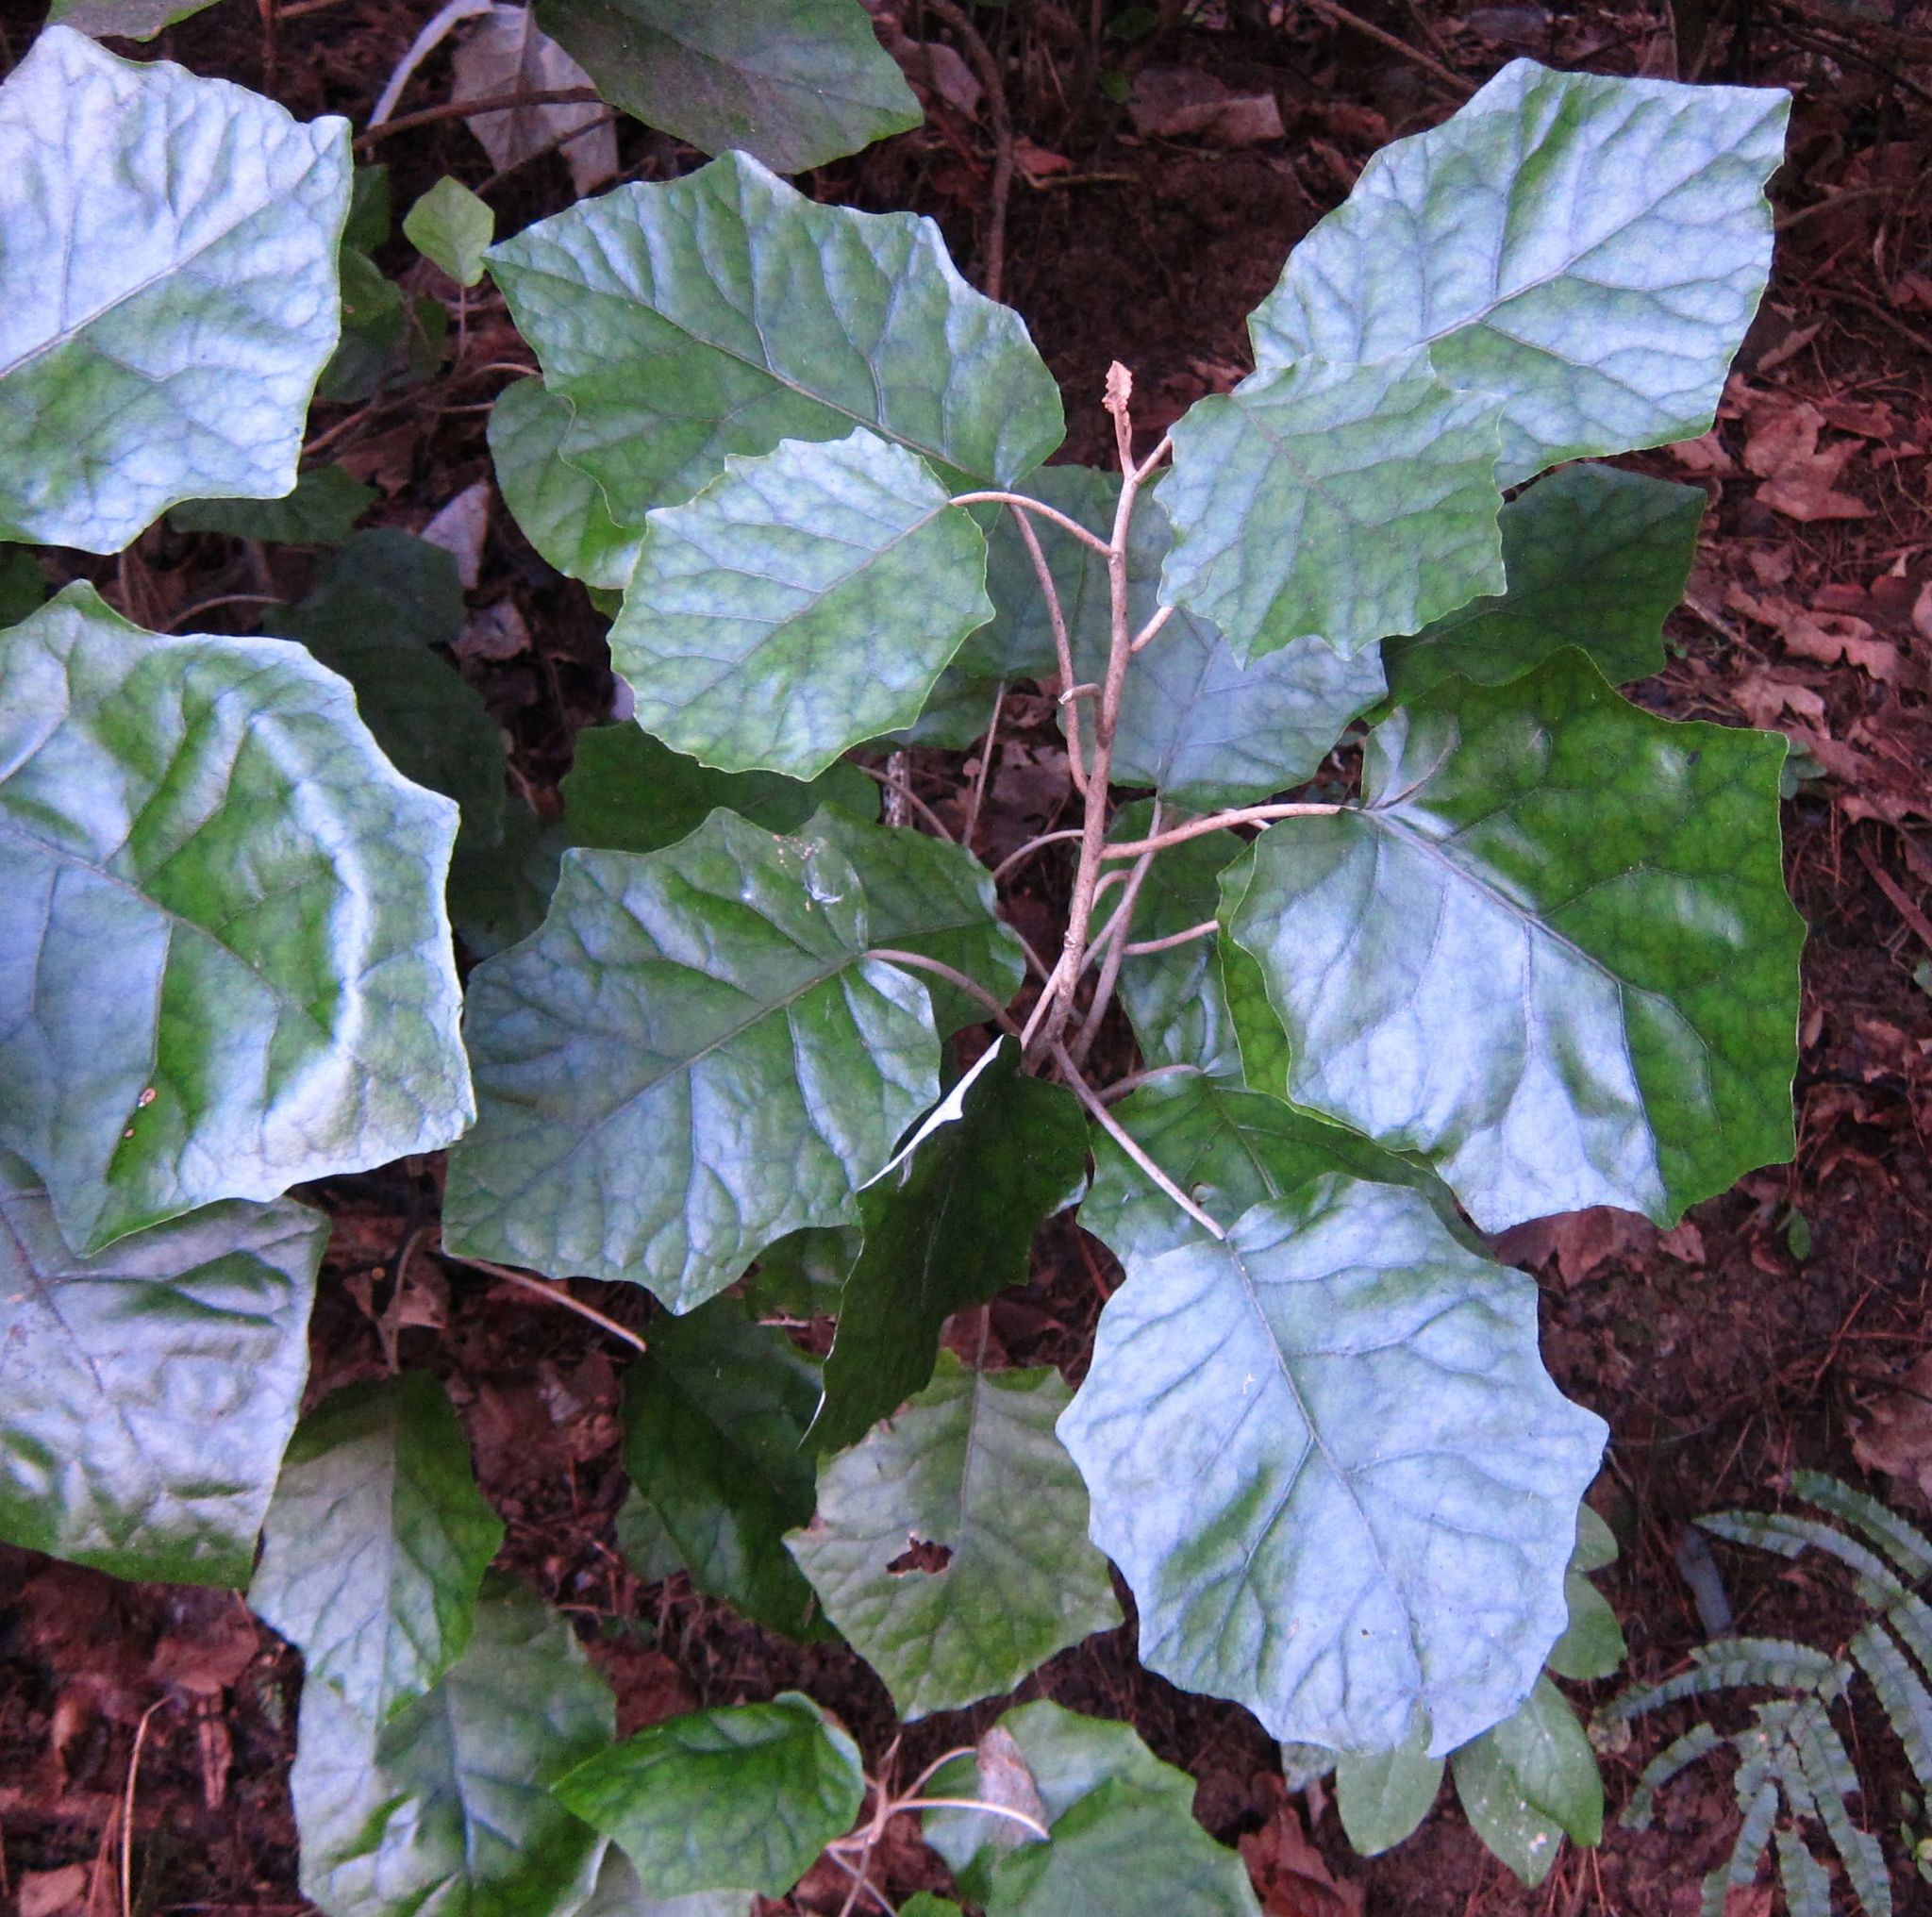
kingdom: Plantae
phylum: Tracheophyta
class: Magnoliopsida
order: Asterales
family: Asteraceae
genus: Brachyglottis
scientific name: Brachyglottis repanda
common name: Hedge ragwort
